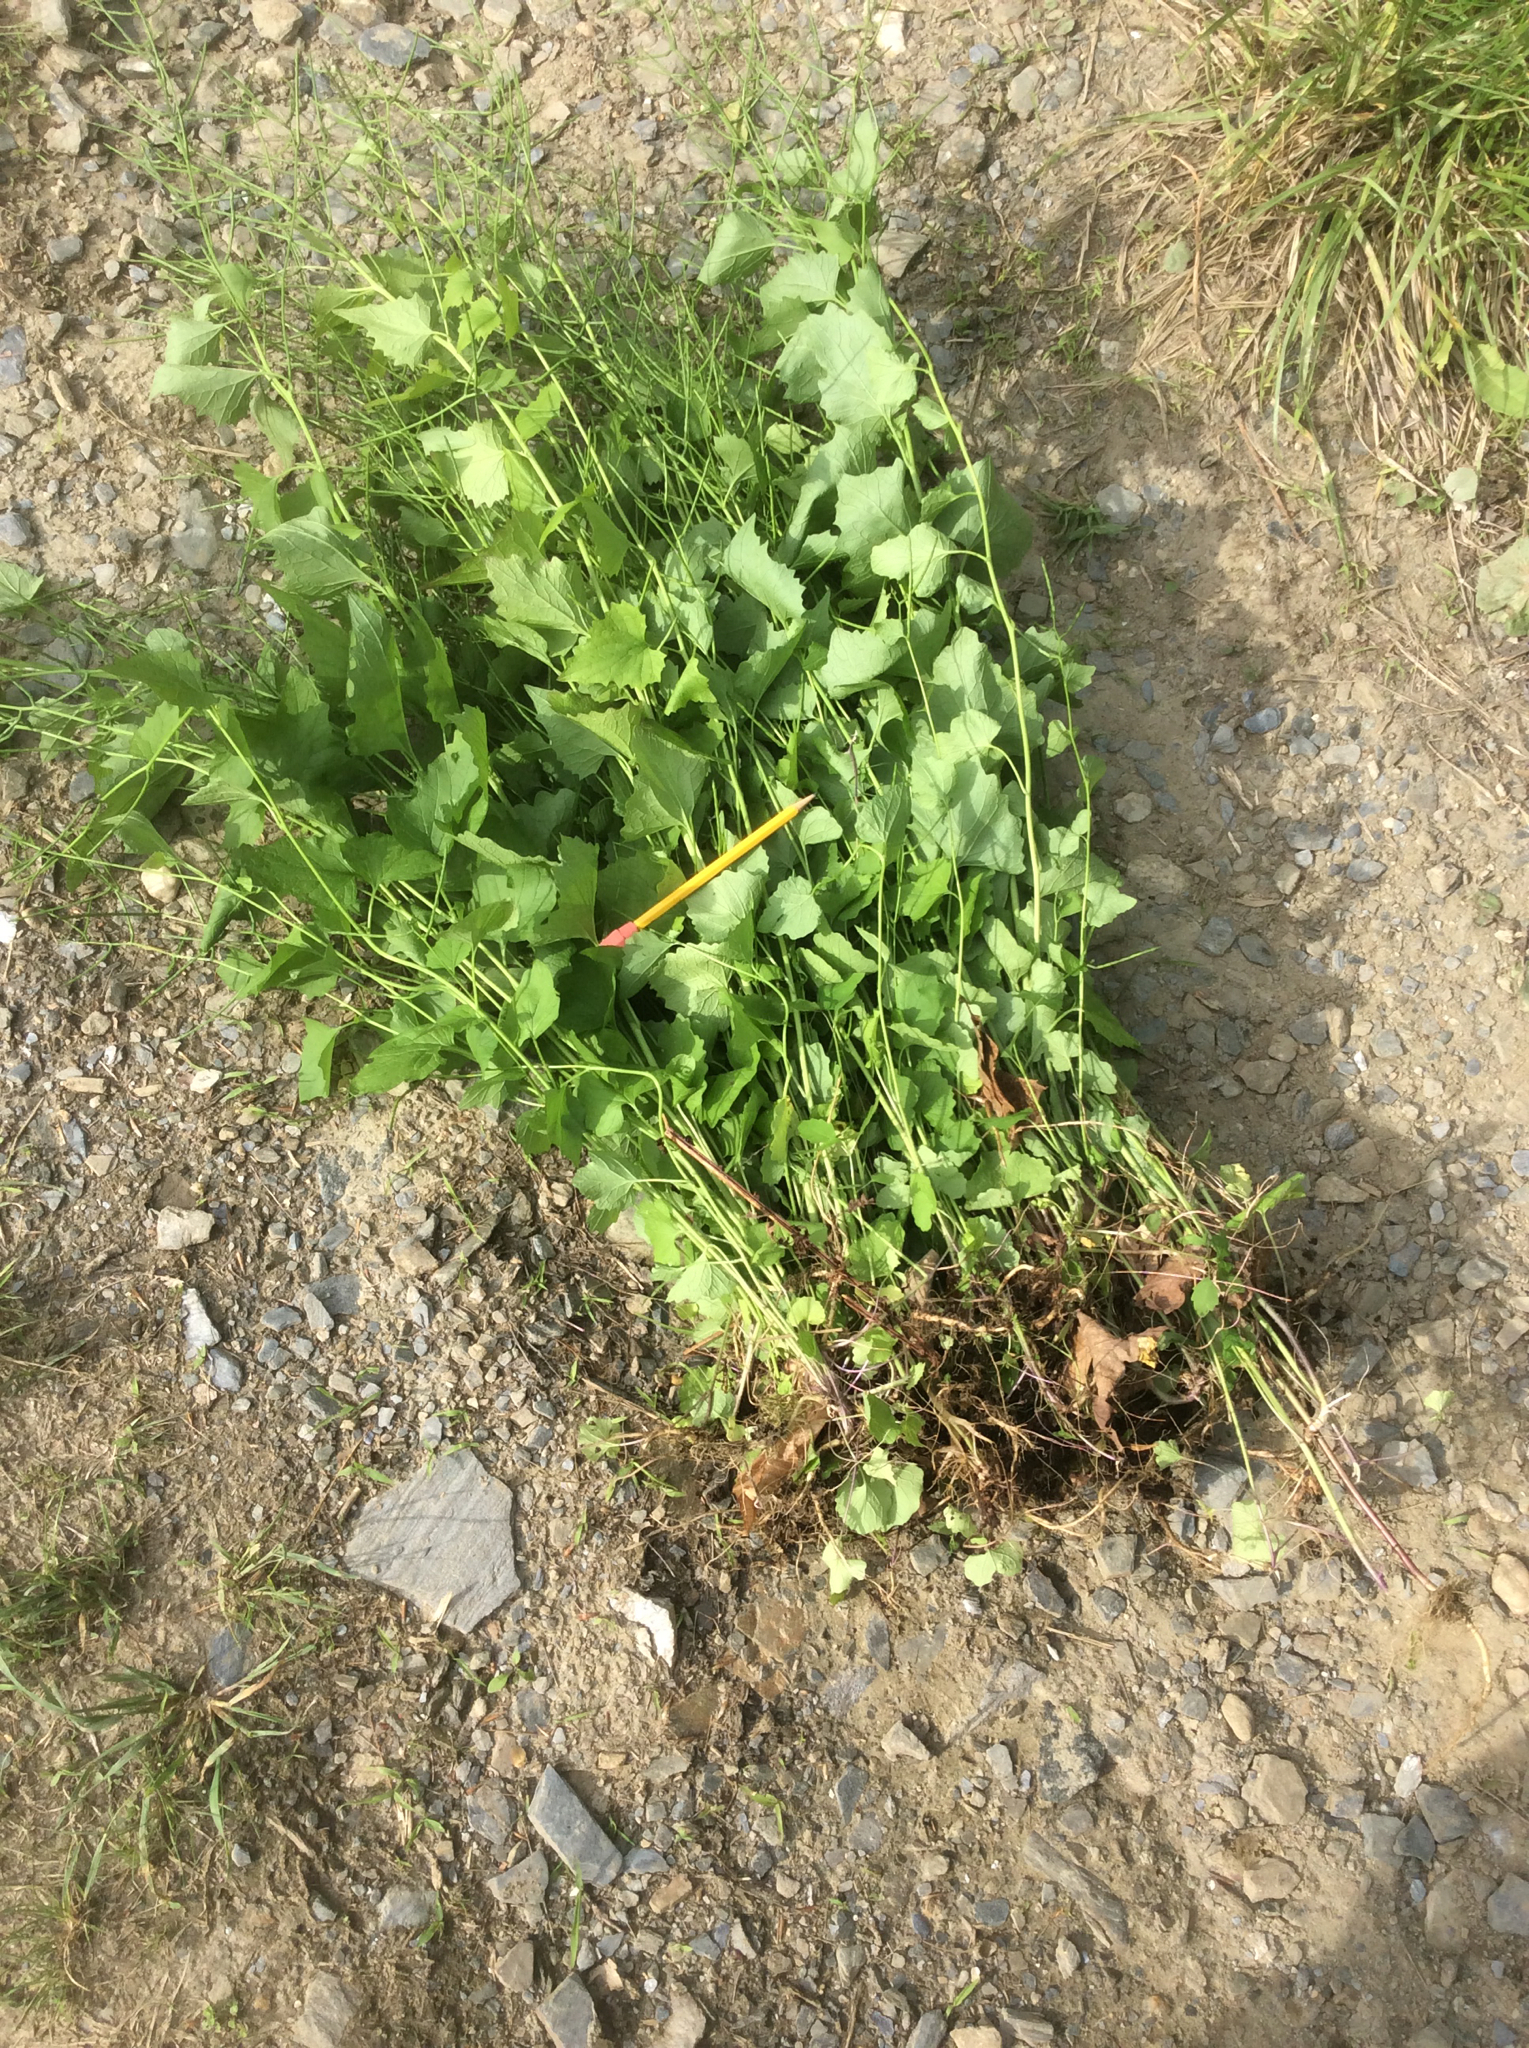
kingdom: Plantae
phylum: Tracheophyta
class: Magnoliopsida
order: Brassicales
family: Brassicaceae
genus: Alliaria
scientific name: Alliaria petiolata
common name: Garlic mustard
